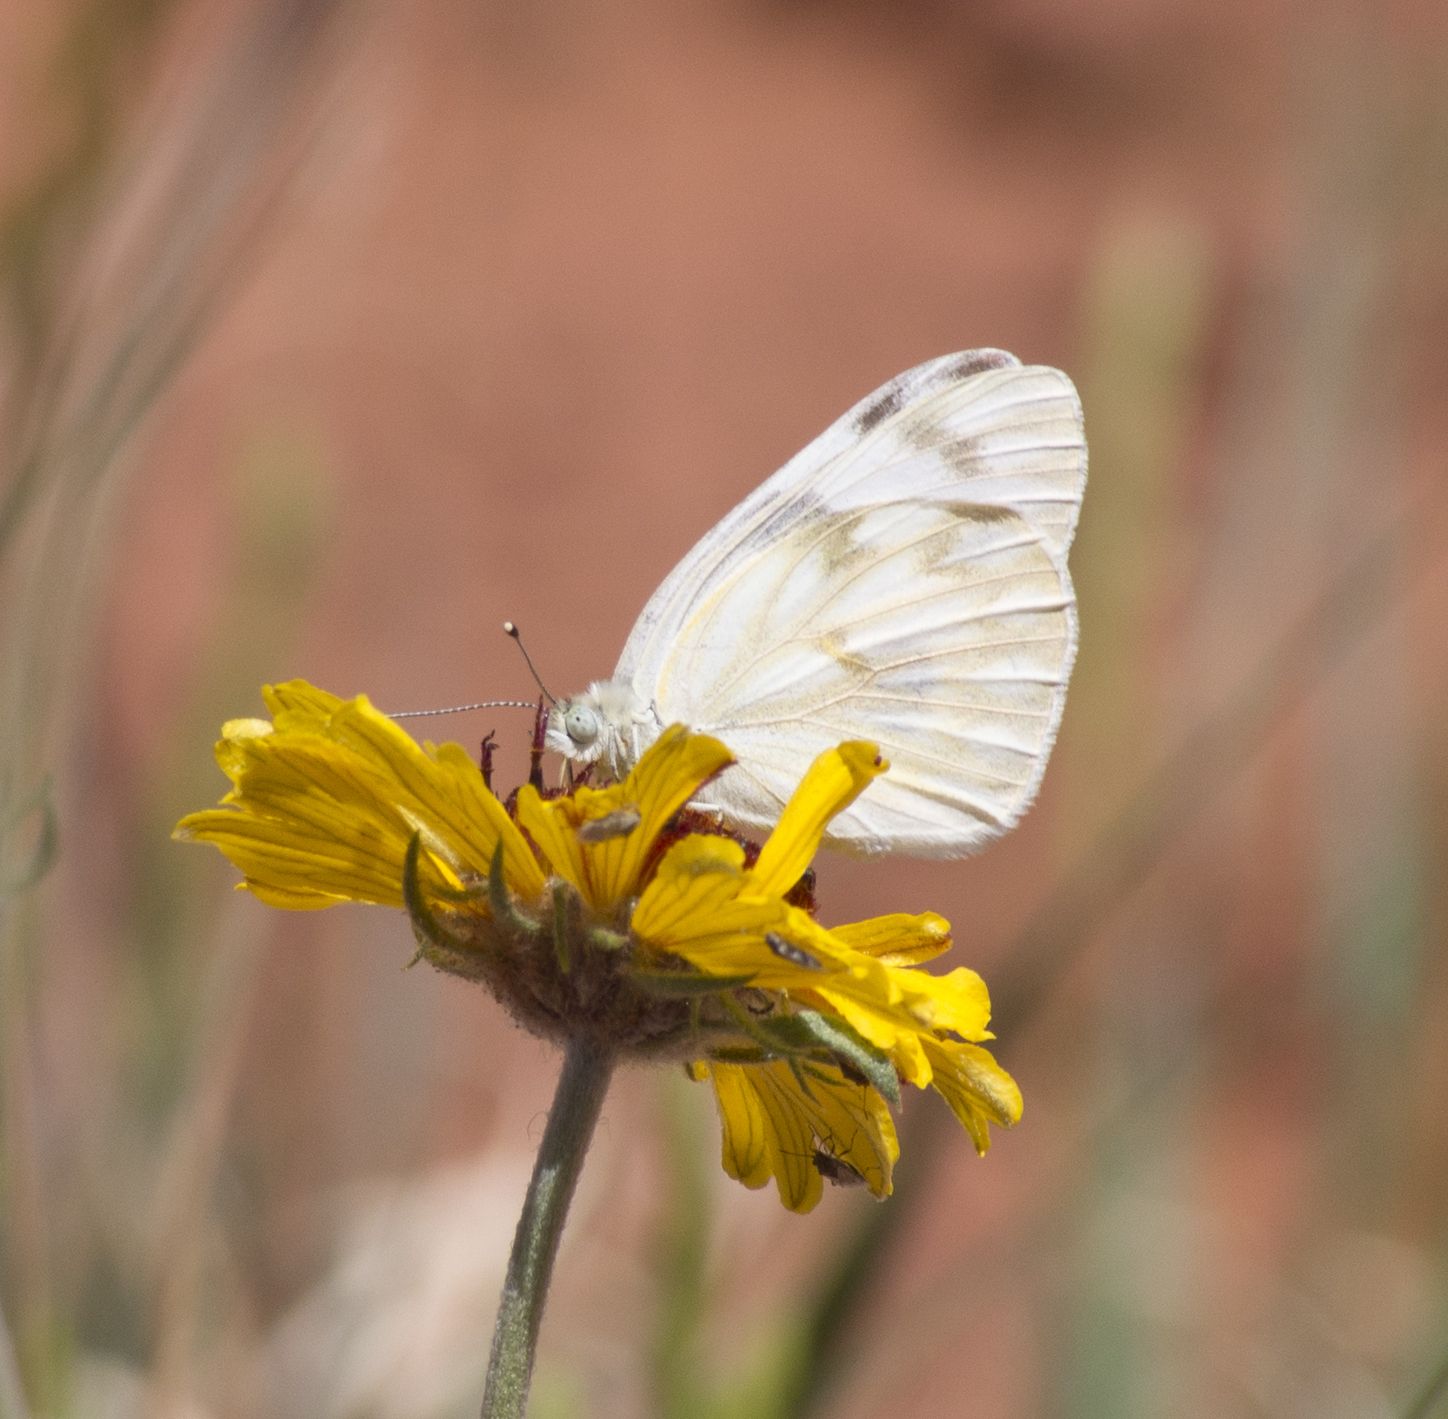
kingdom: Animalia
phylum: Arthropoda
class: Insecta
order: Lepidoptera
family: Pieridae
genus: Pontia
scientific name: Pontia protodice
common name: Checkered white
